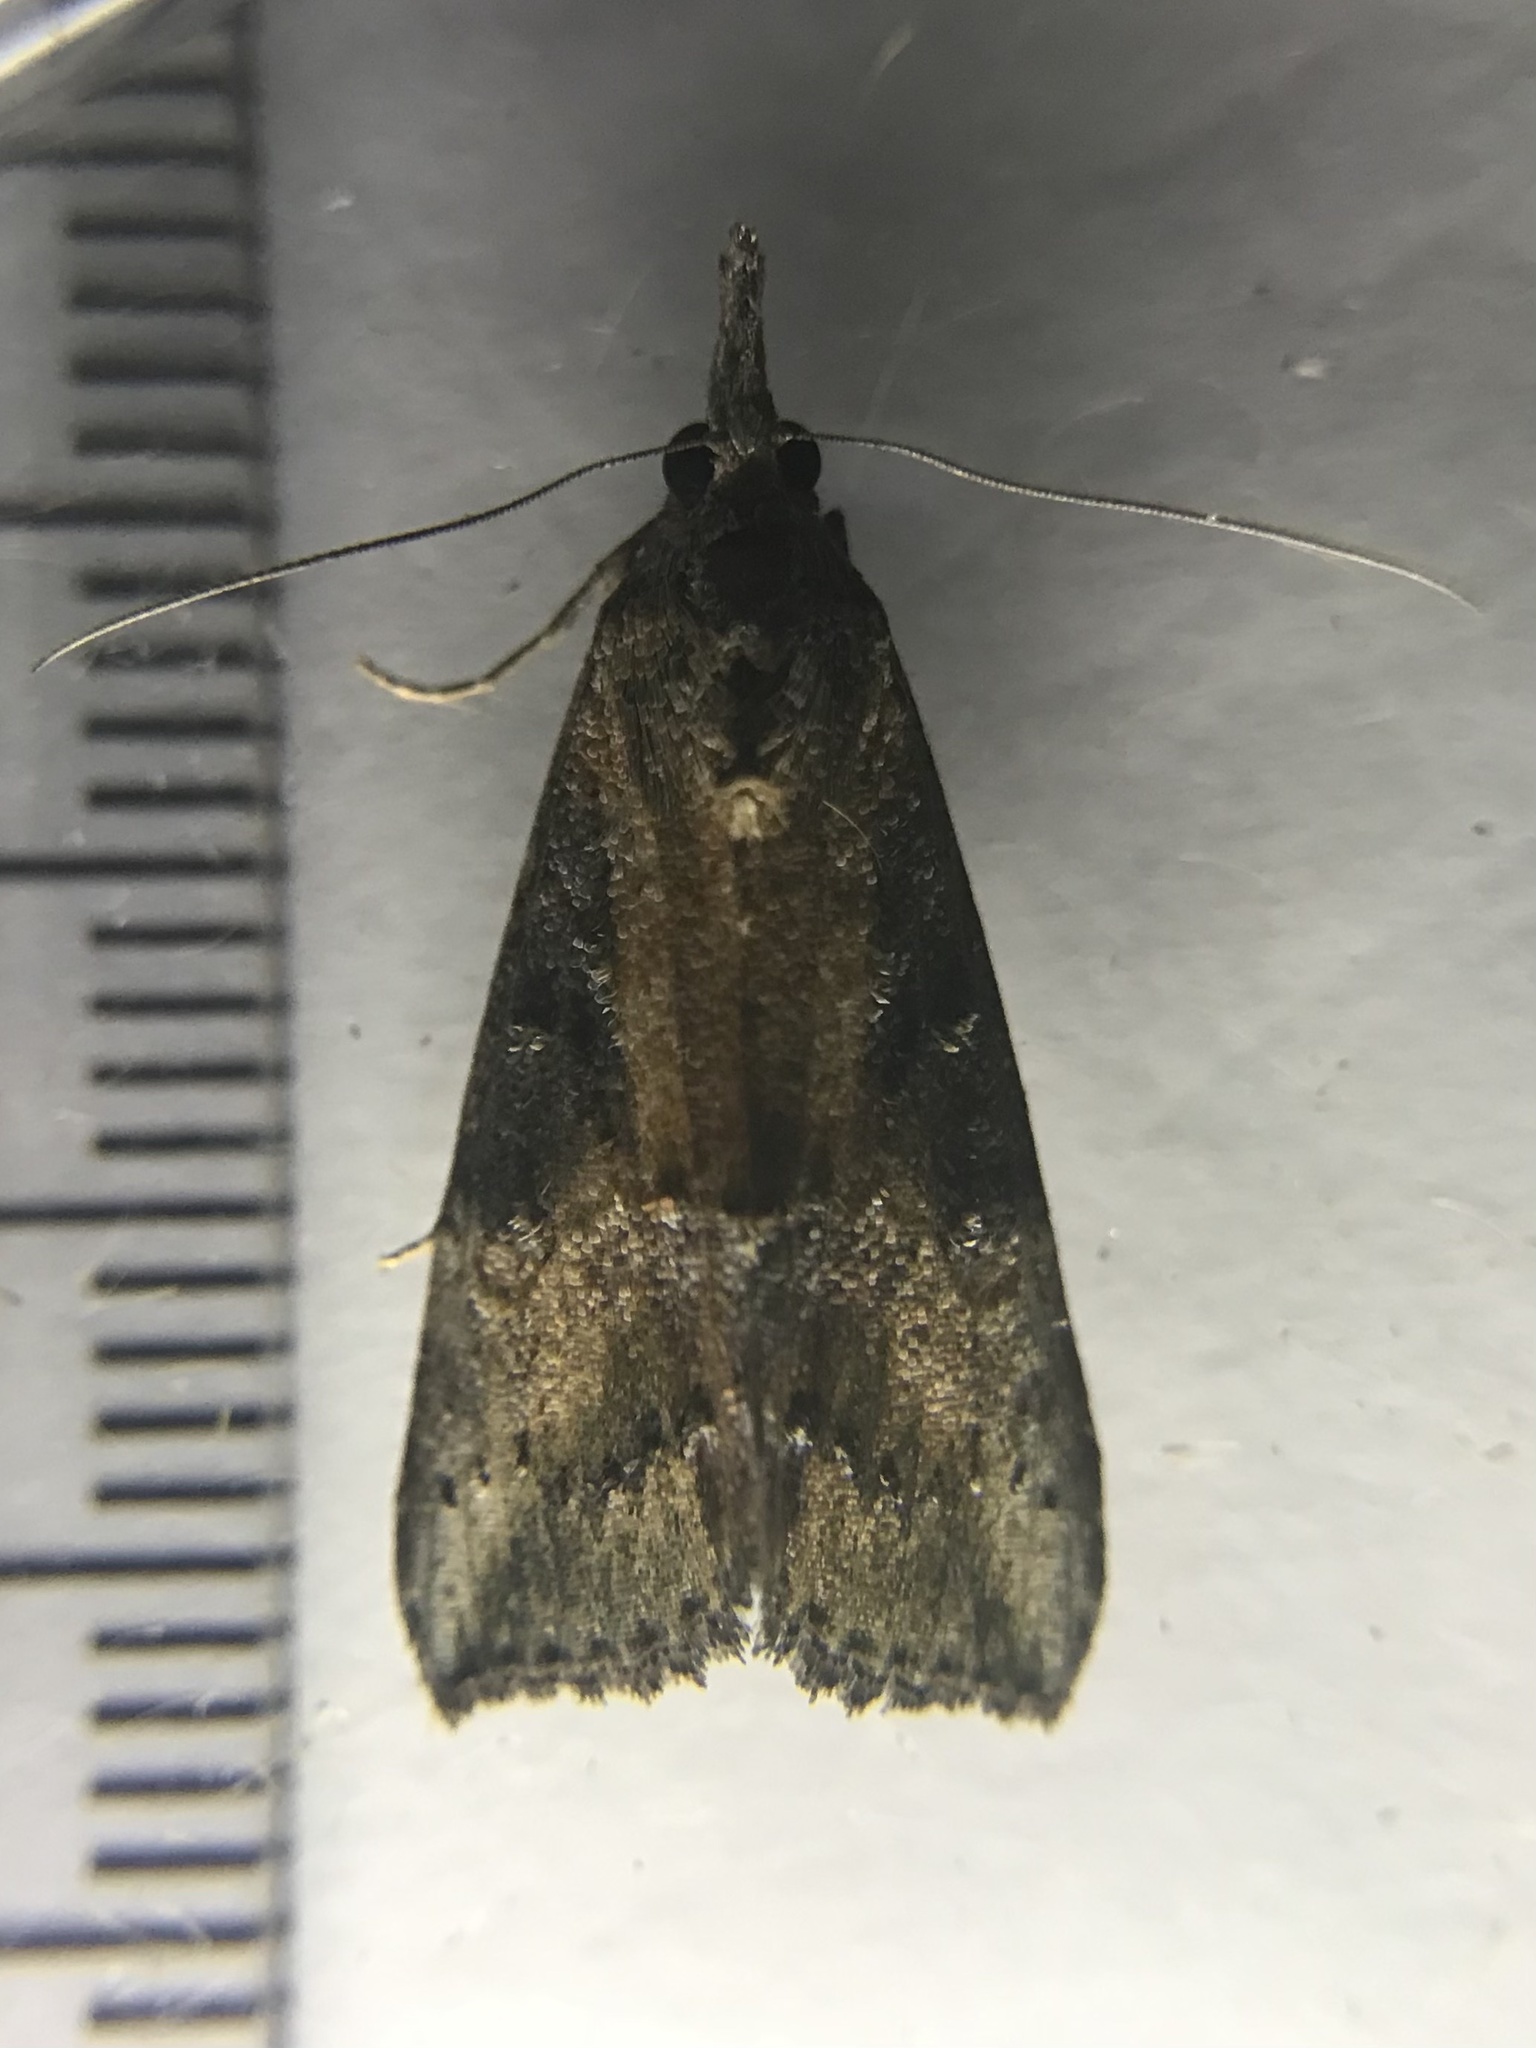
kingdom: Animalia
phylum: Arthropoda
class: Insecta
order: Lepidoptera
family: Erebidae
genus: Hypena
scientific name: Hypena scabra
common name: Green cloverworm
